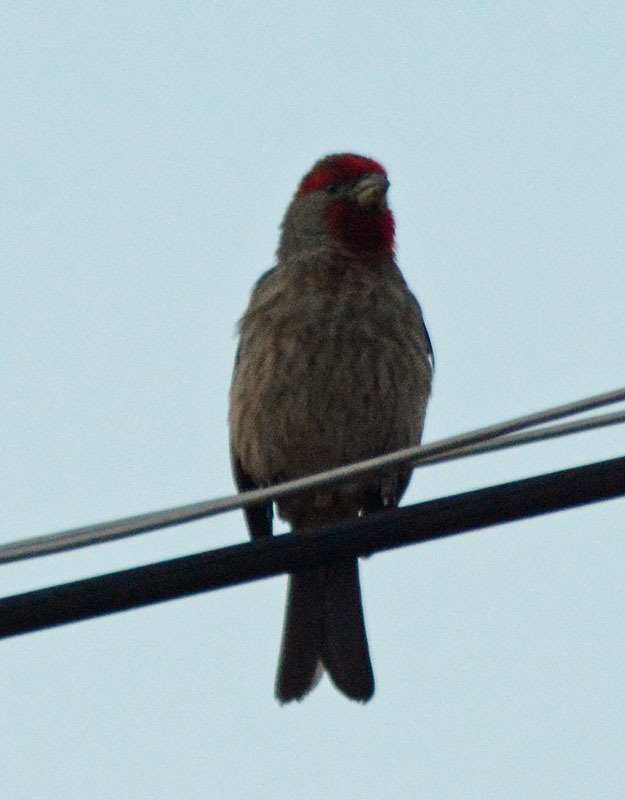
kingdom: Animalia
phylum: Chordata
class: Aves
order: Passeriformes
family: Fringillidae
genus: Haemorhous
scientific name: Haemorhous mexicanus
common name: House finch
